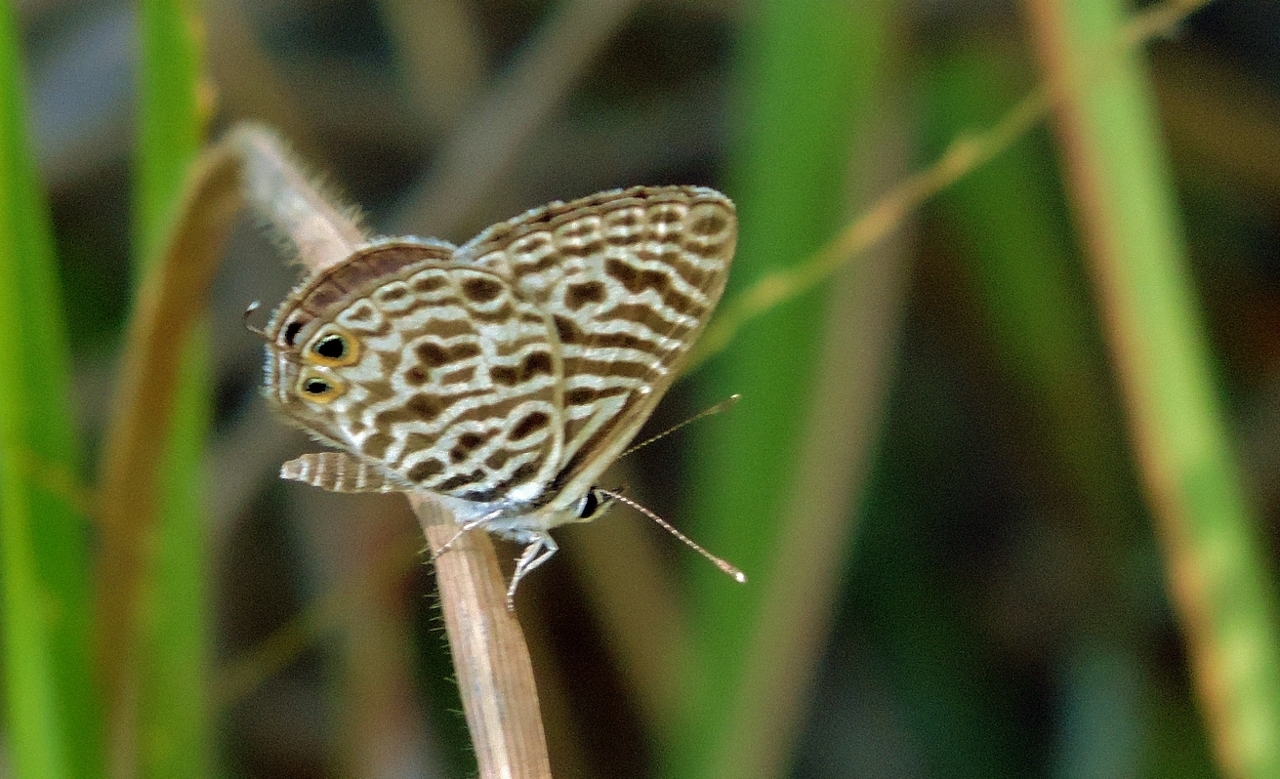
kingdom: Animalia
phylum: Arthropoda
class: Insecta
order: Lepidoptera
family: Lycaenidae
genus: Leptotes
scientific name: Leptotes
